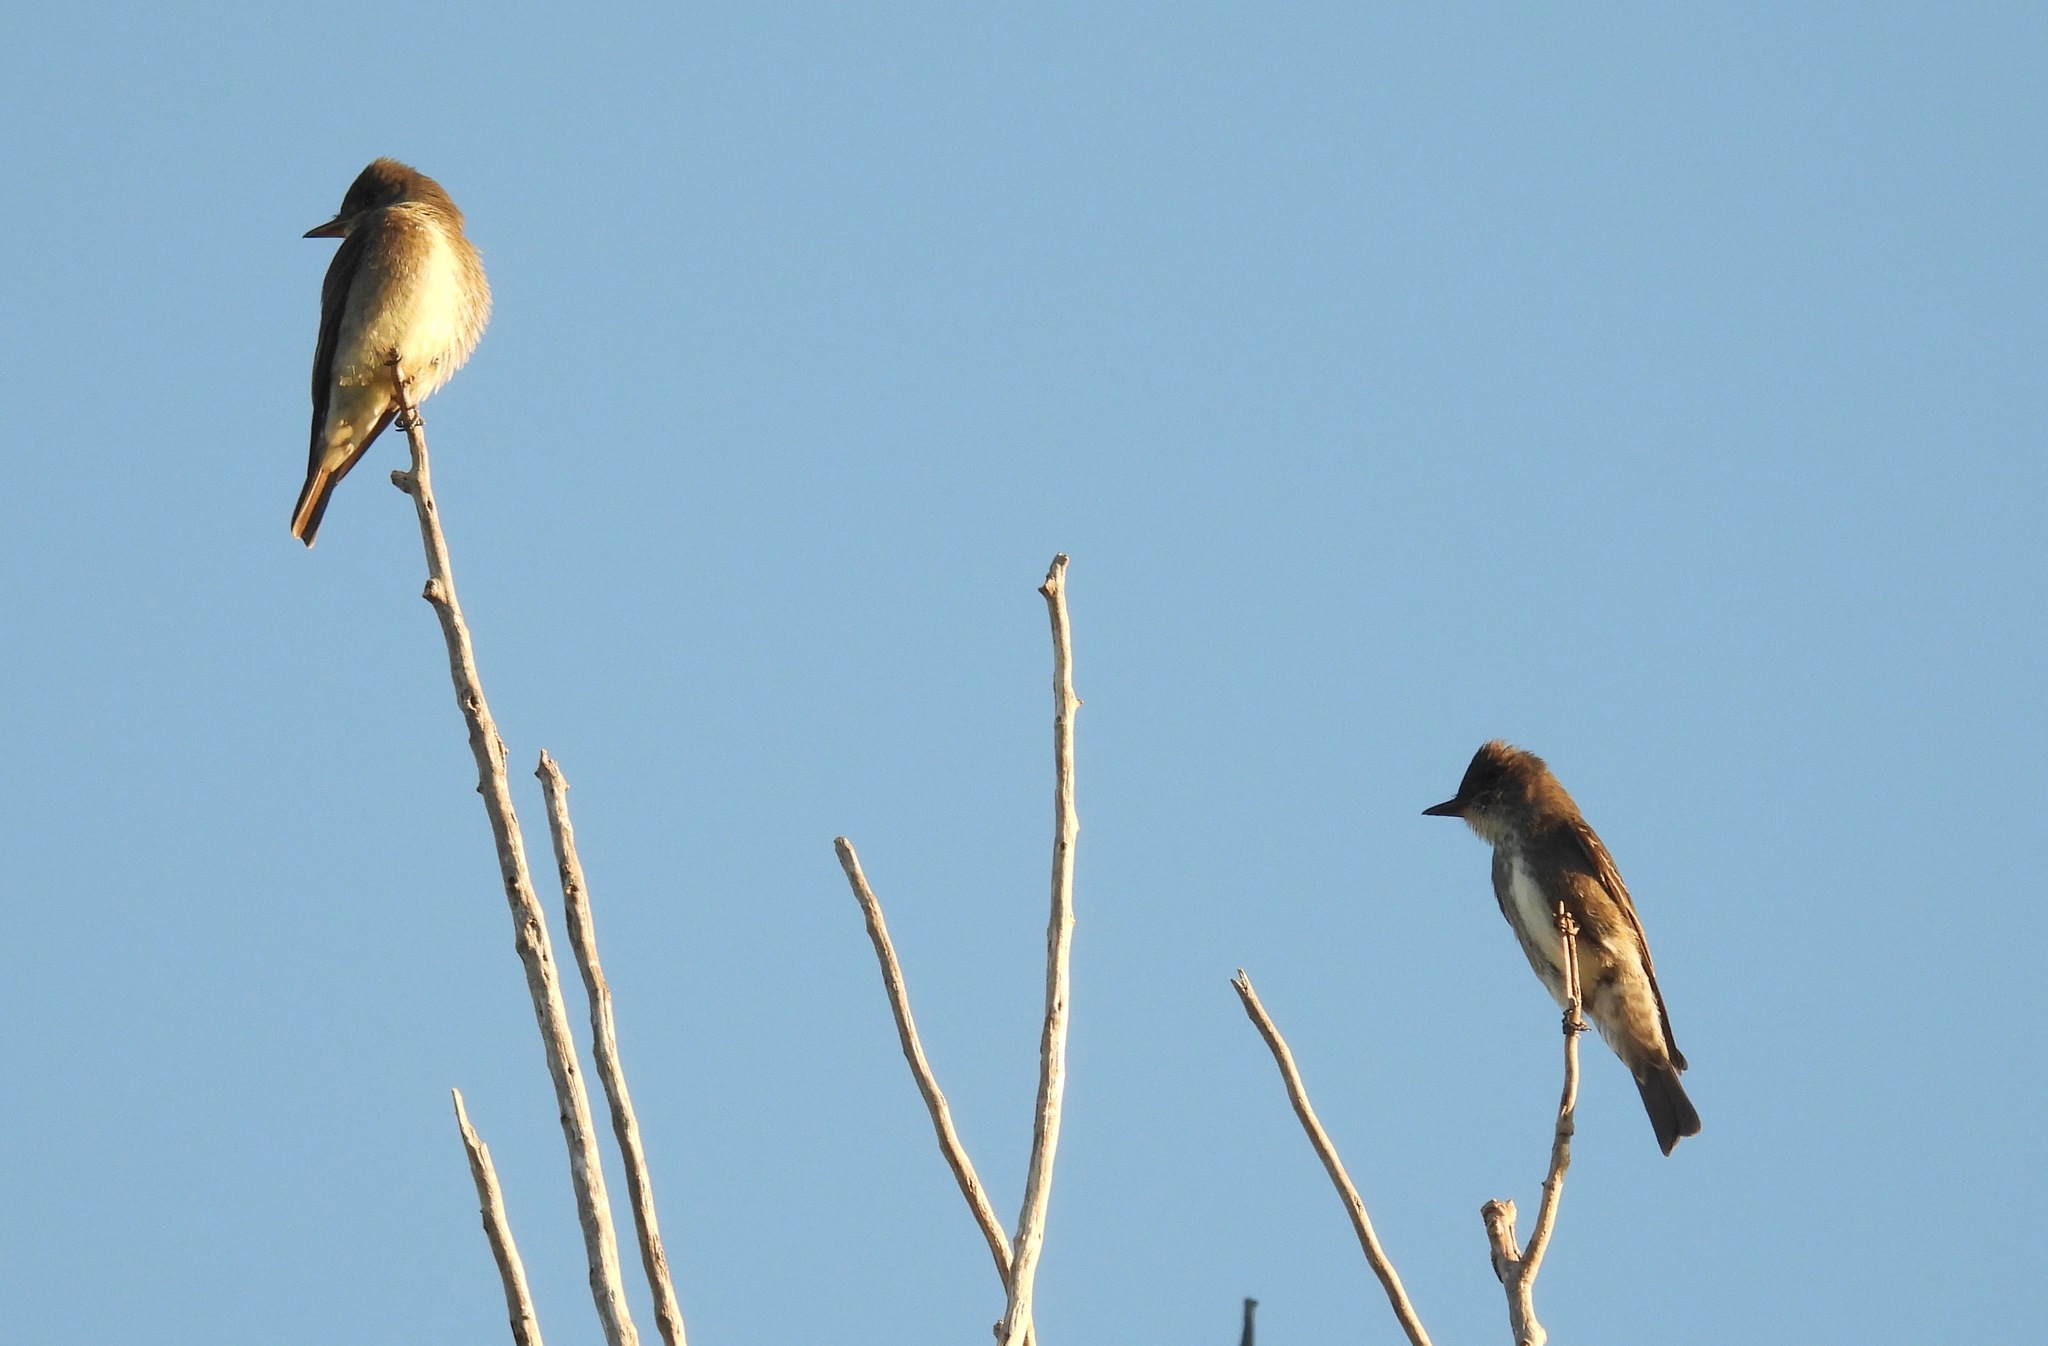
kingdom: Animalia
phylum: Chordata
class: Aves
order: Passeriformes
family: Tyrannidae
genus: Contopus
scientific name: Contopus cooperi
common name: Olive-sided flycatcher
